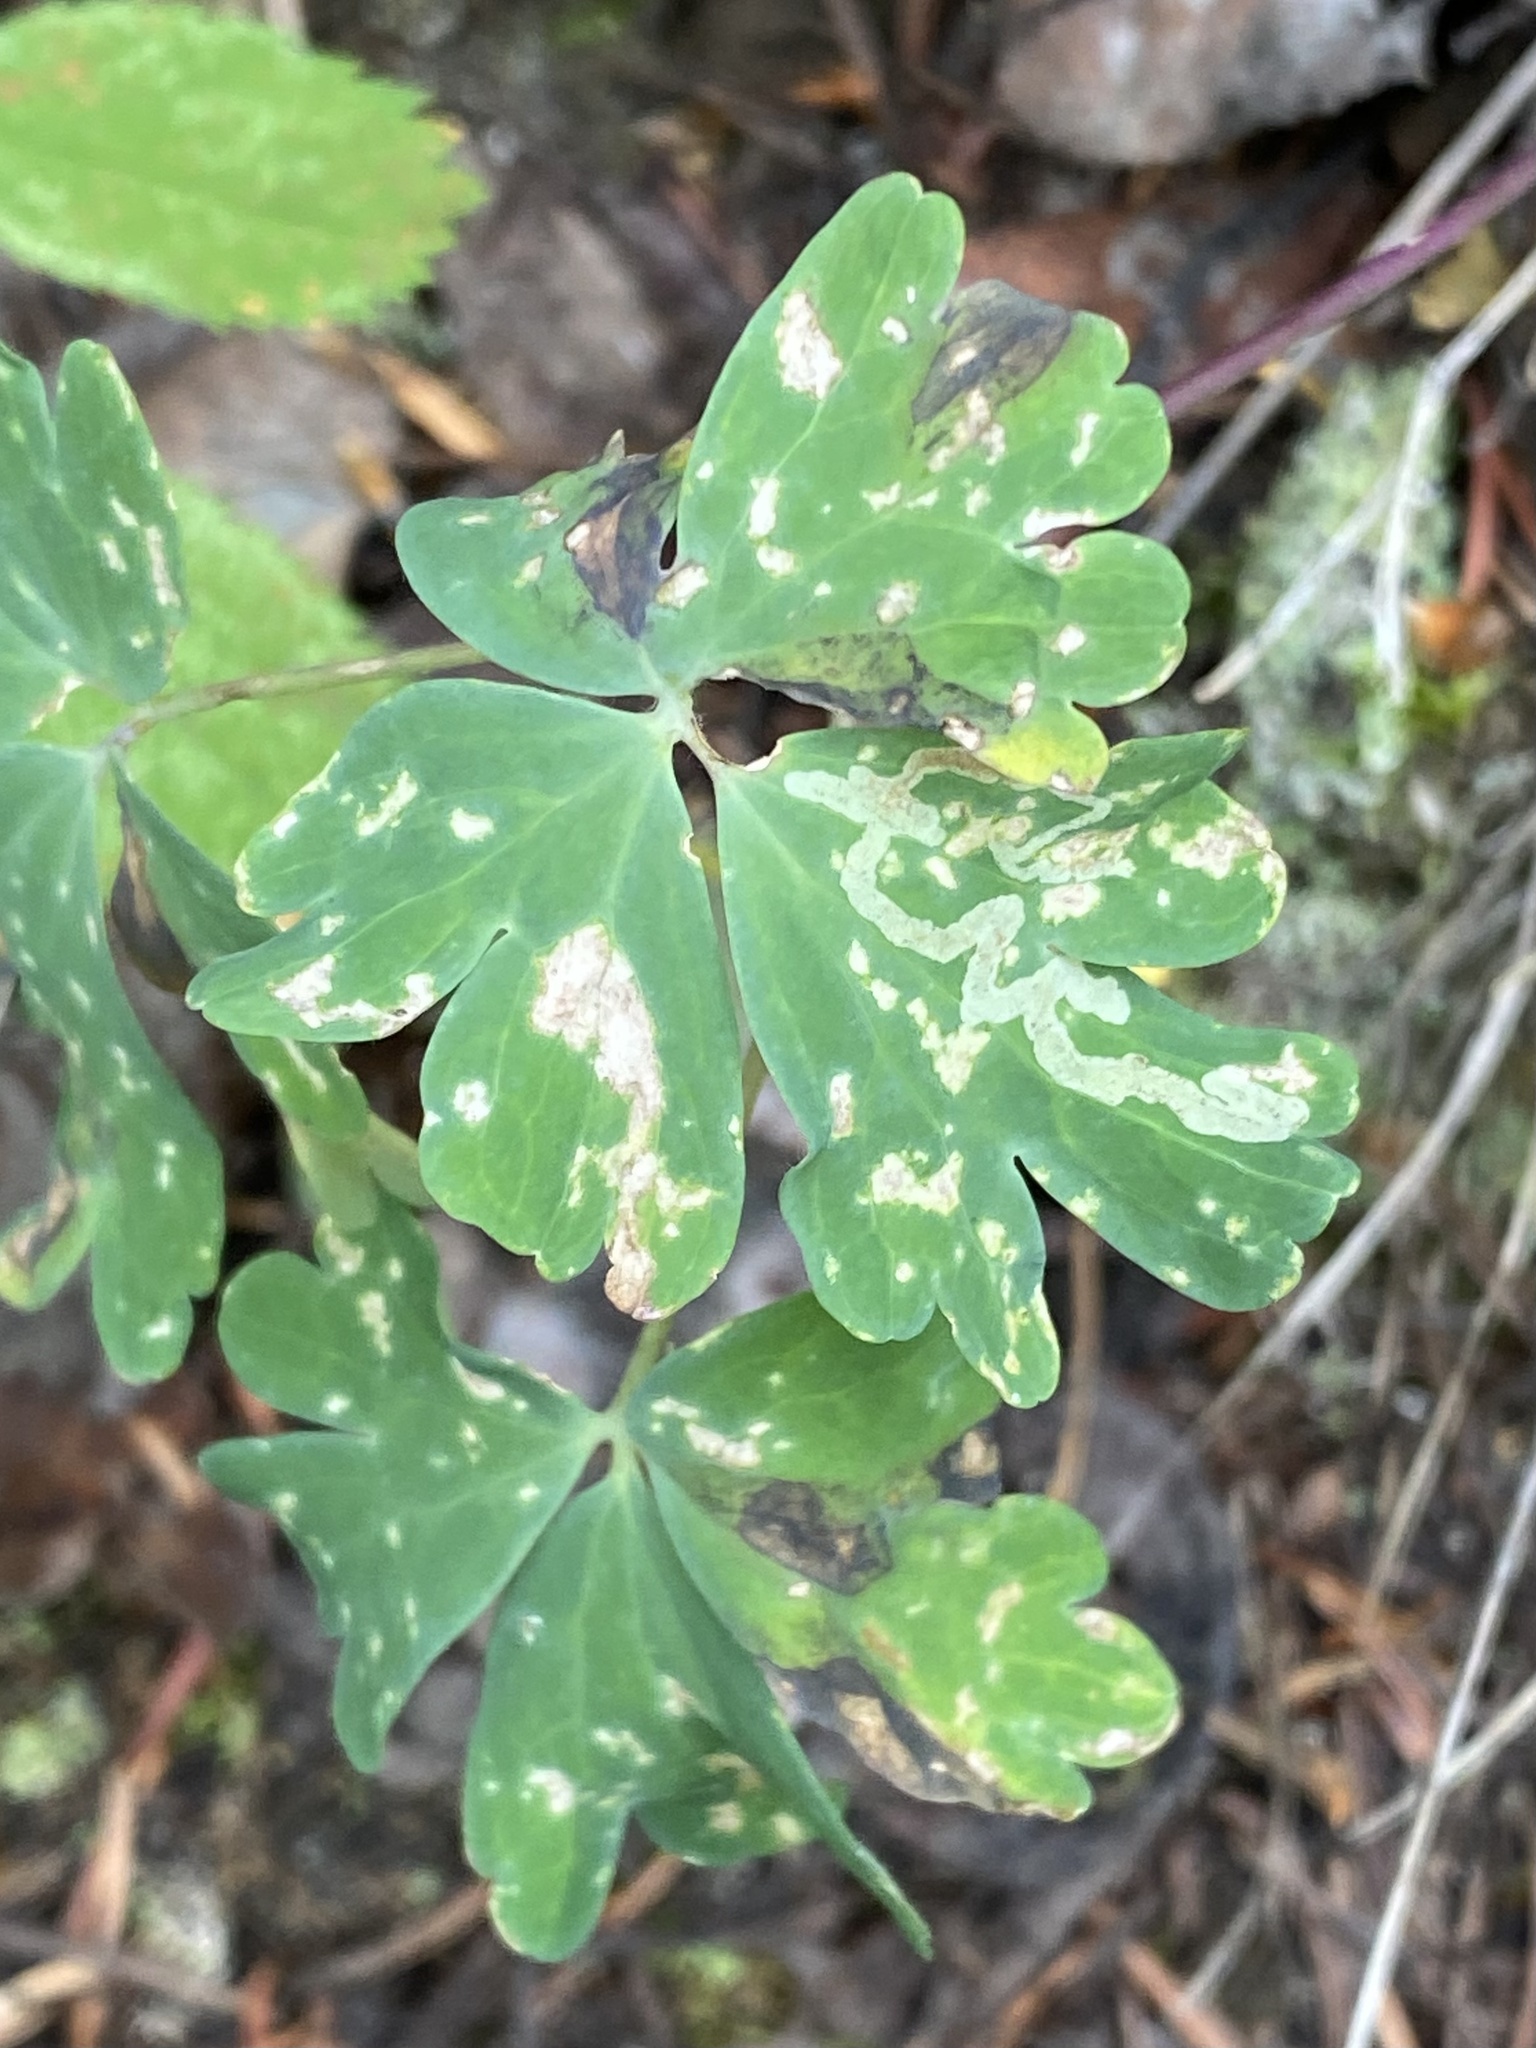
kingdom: Plantae
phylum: Tracheophyta
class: Magnoliopsida
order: Ranunculales
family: Ranunculaceae
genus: Aquilegia
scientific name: Aquilegia elegantula
